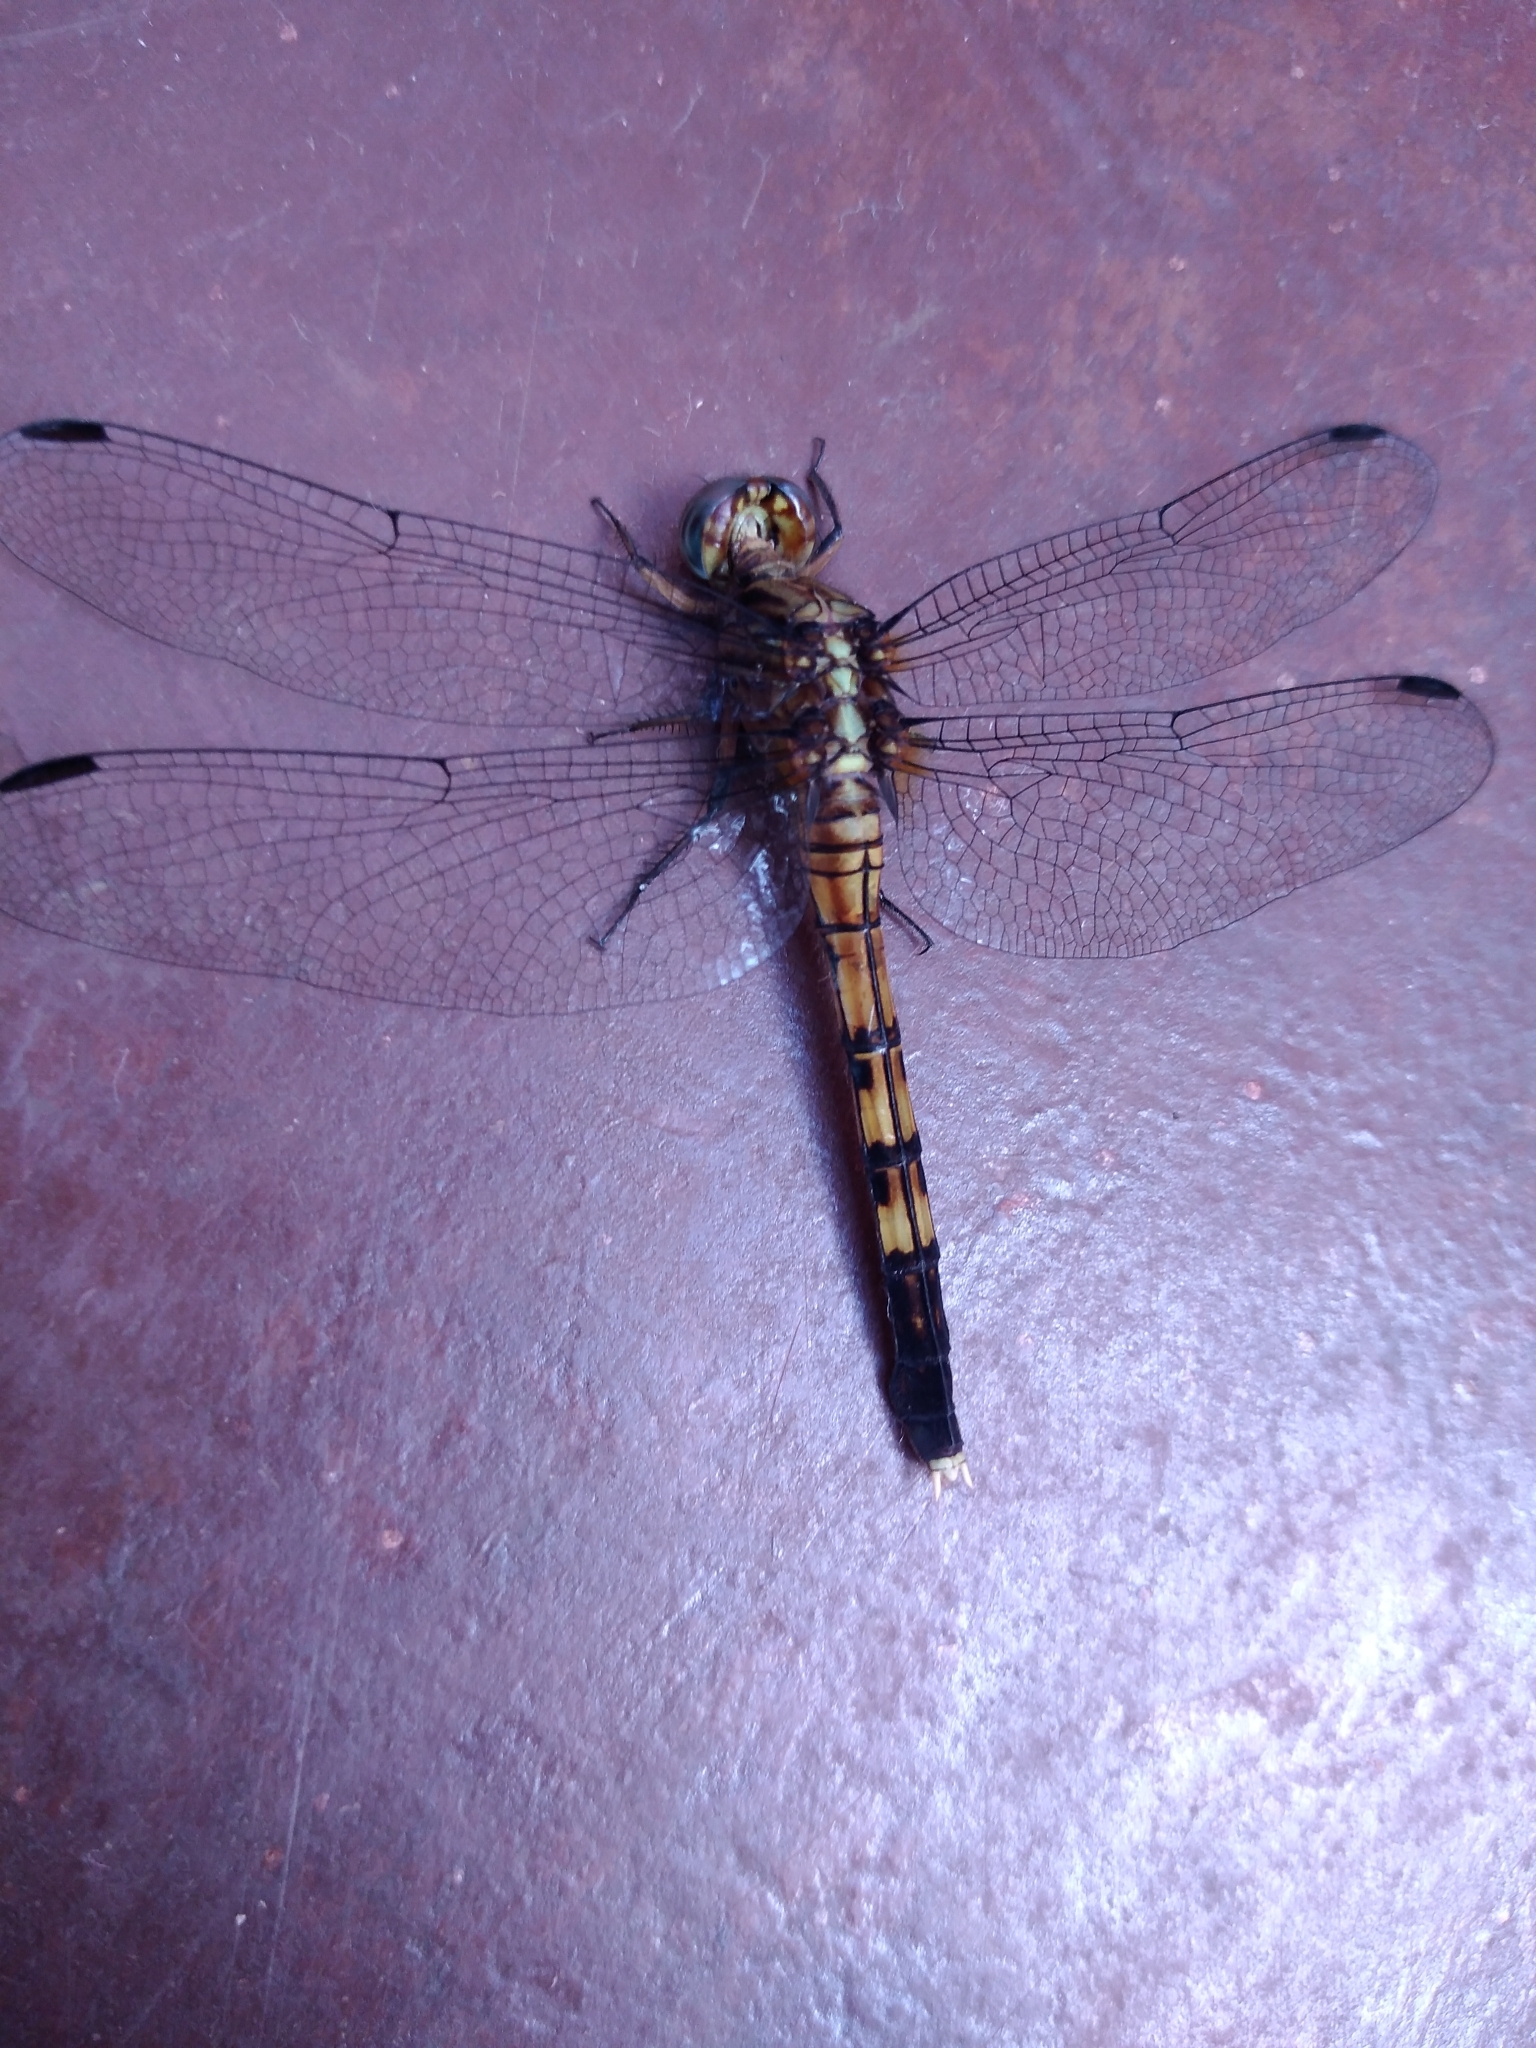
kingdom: Animalia
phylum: Arthropoda
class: Insecta
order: Odonata
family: Libellulidae
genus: Orthetrum
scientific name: Orthetrum julia
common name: Julia skimmer
